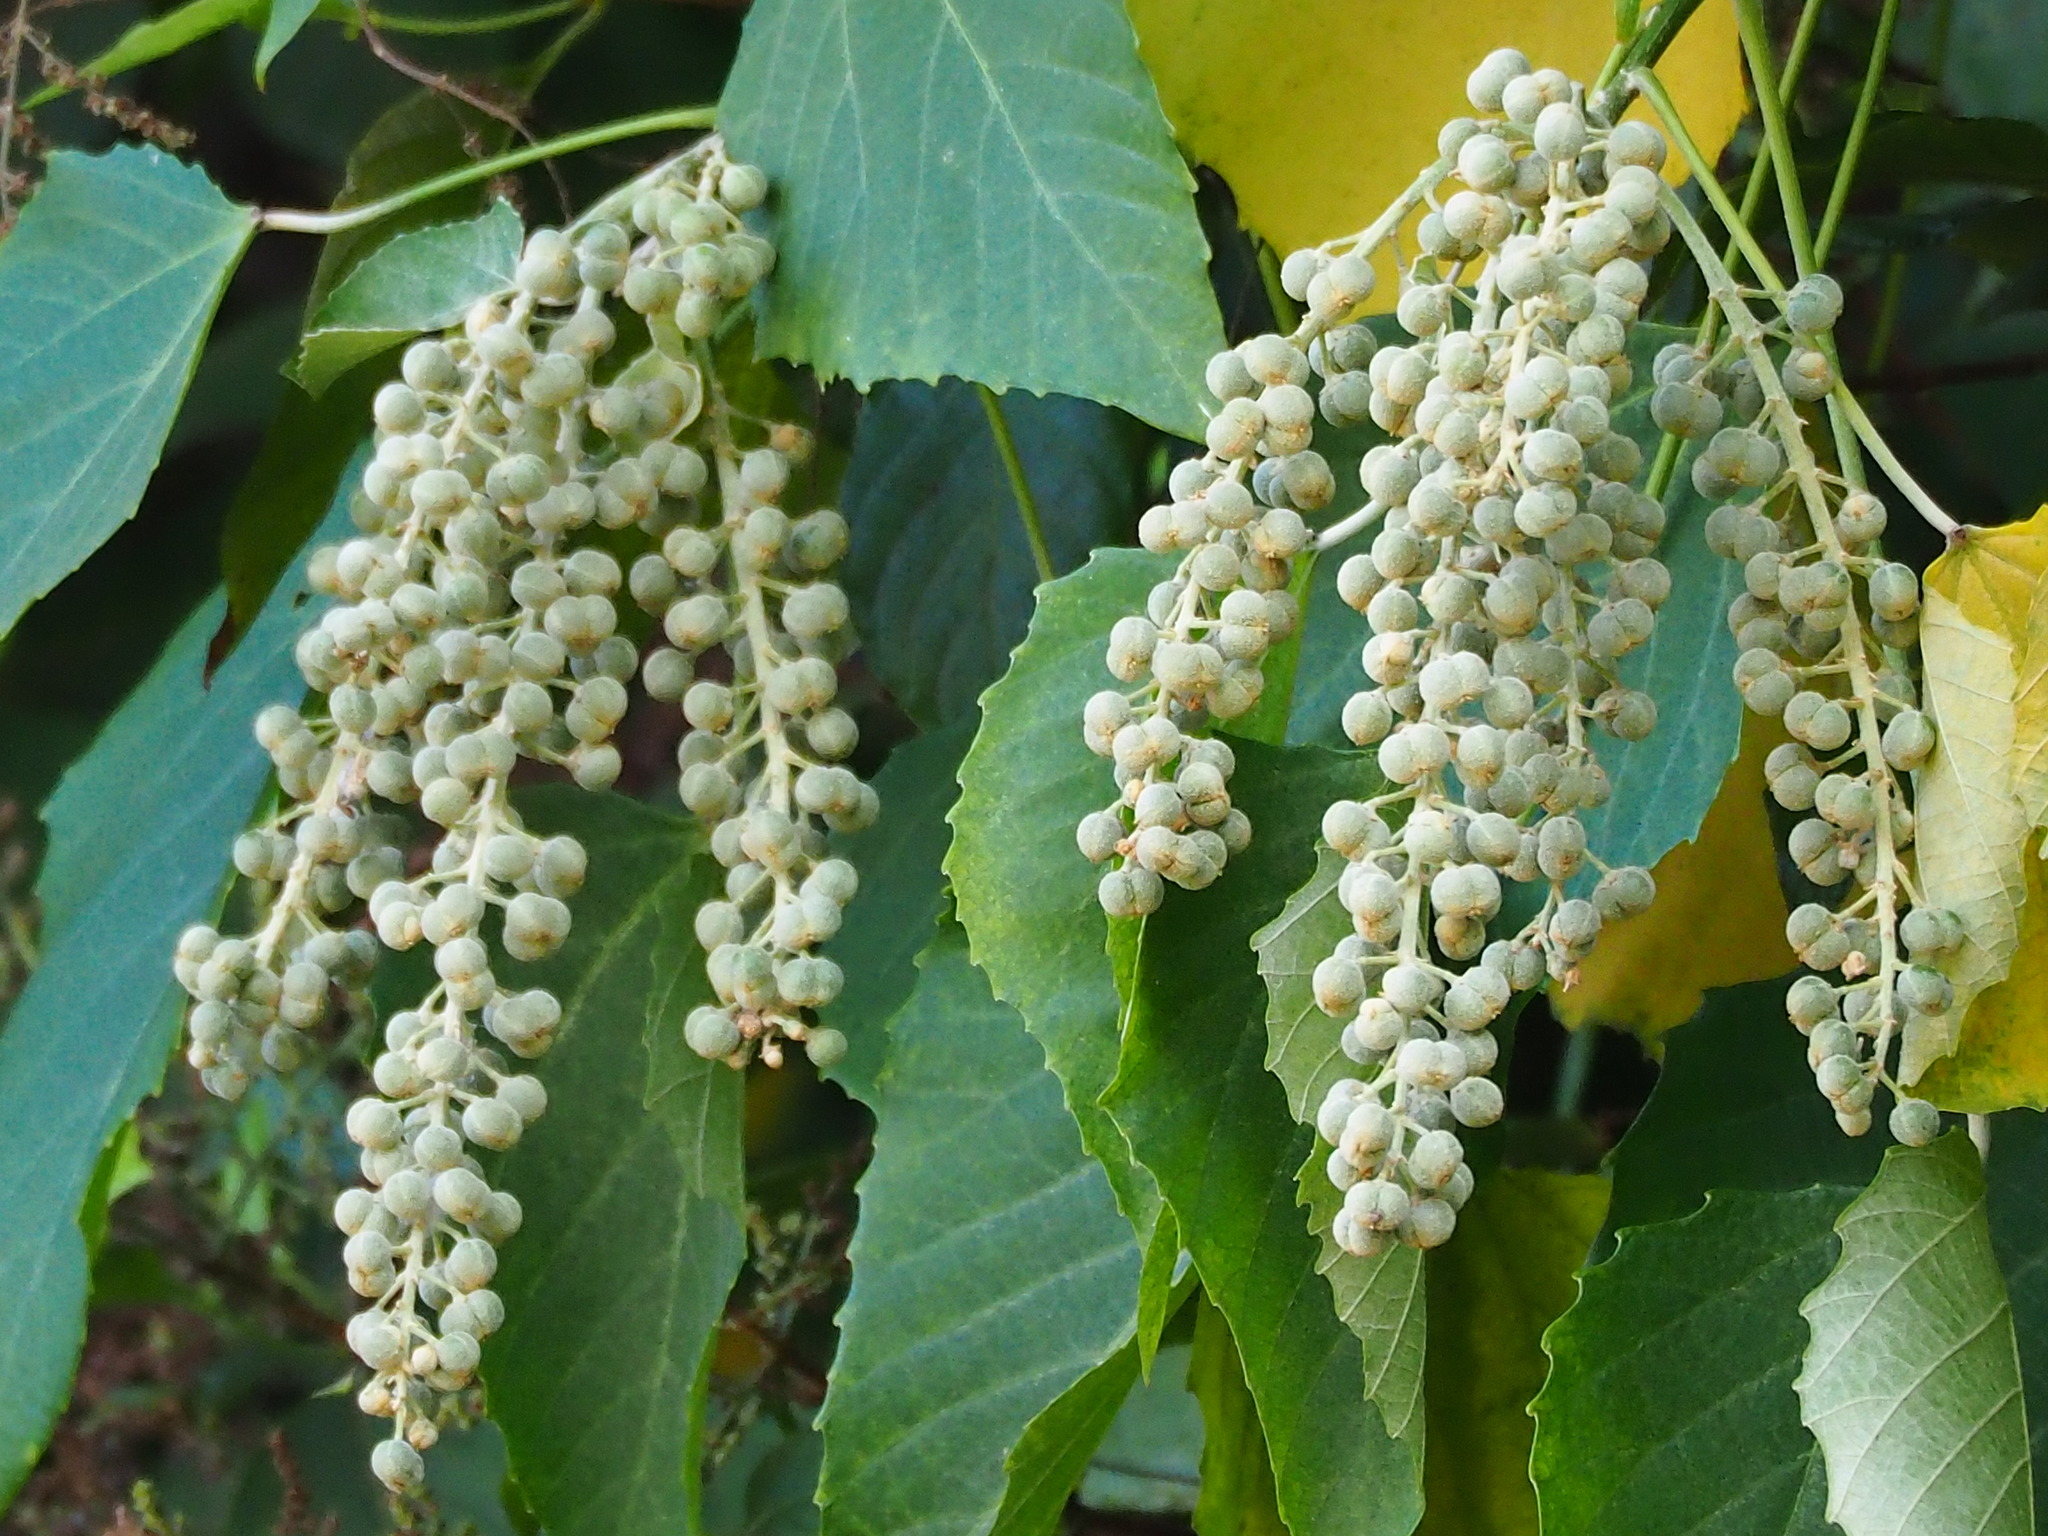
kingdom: Plantae
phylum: Tracheophyta
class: Magnoliopsida
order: Malpighiales
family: Euphorbiaceae
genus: Melanolepis
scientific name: Melanolepis multiglandulosa
